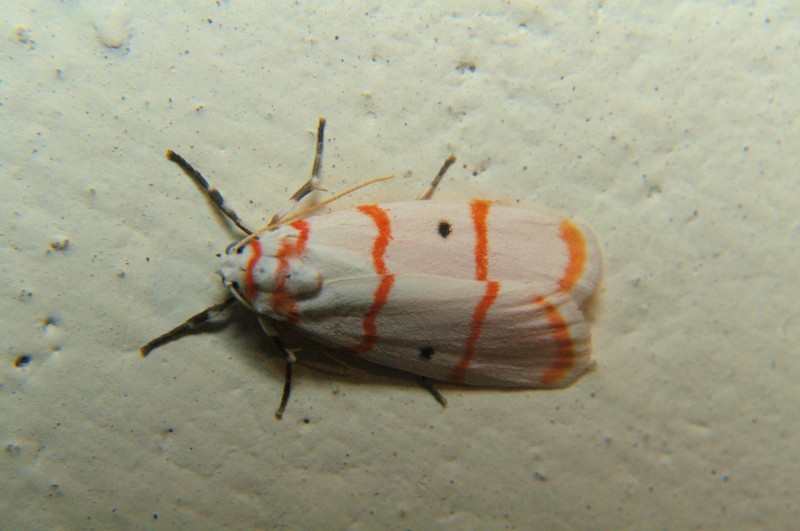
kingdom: Animalia
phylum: Arthropoda
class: Insecta
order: Lepidoptera
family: Erebidae
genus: Cyana
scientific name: Cyana catorhoda
